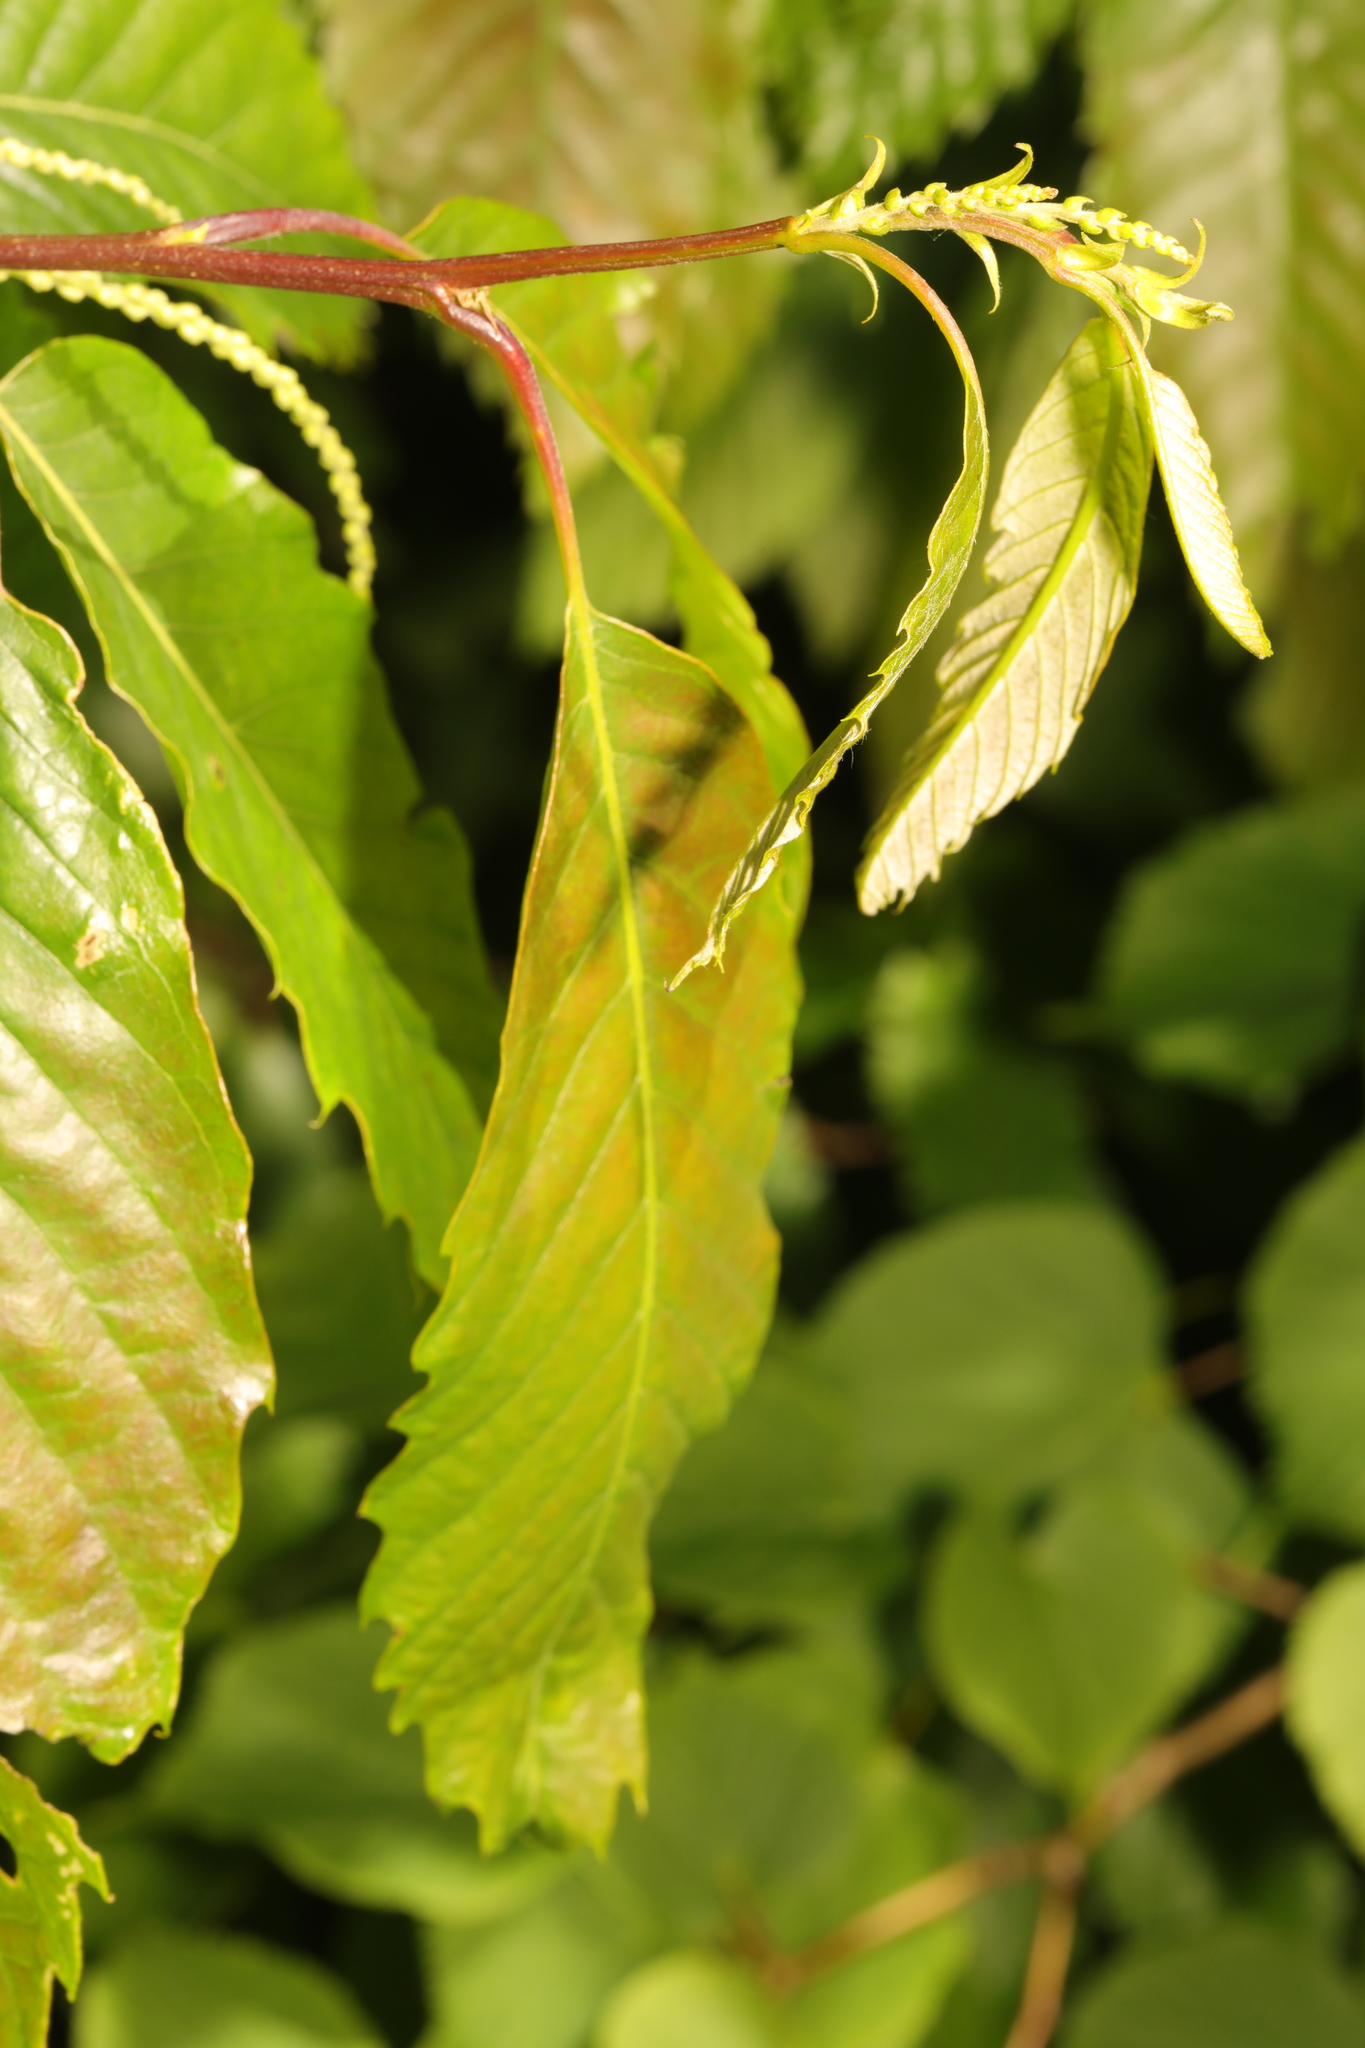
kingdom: Plantae
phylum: Tracheophyta
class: Magnoliopsida
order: Fagales
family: Fagaceae
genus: Castanea
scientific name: Castanea sativa
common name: Sweet chestnut
